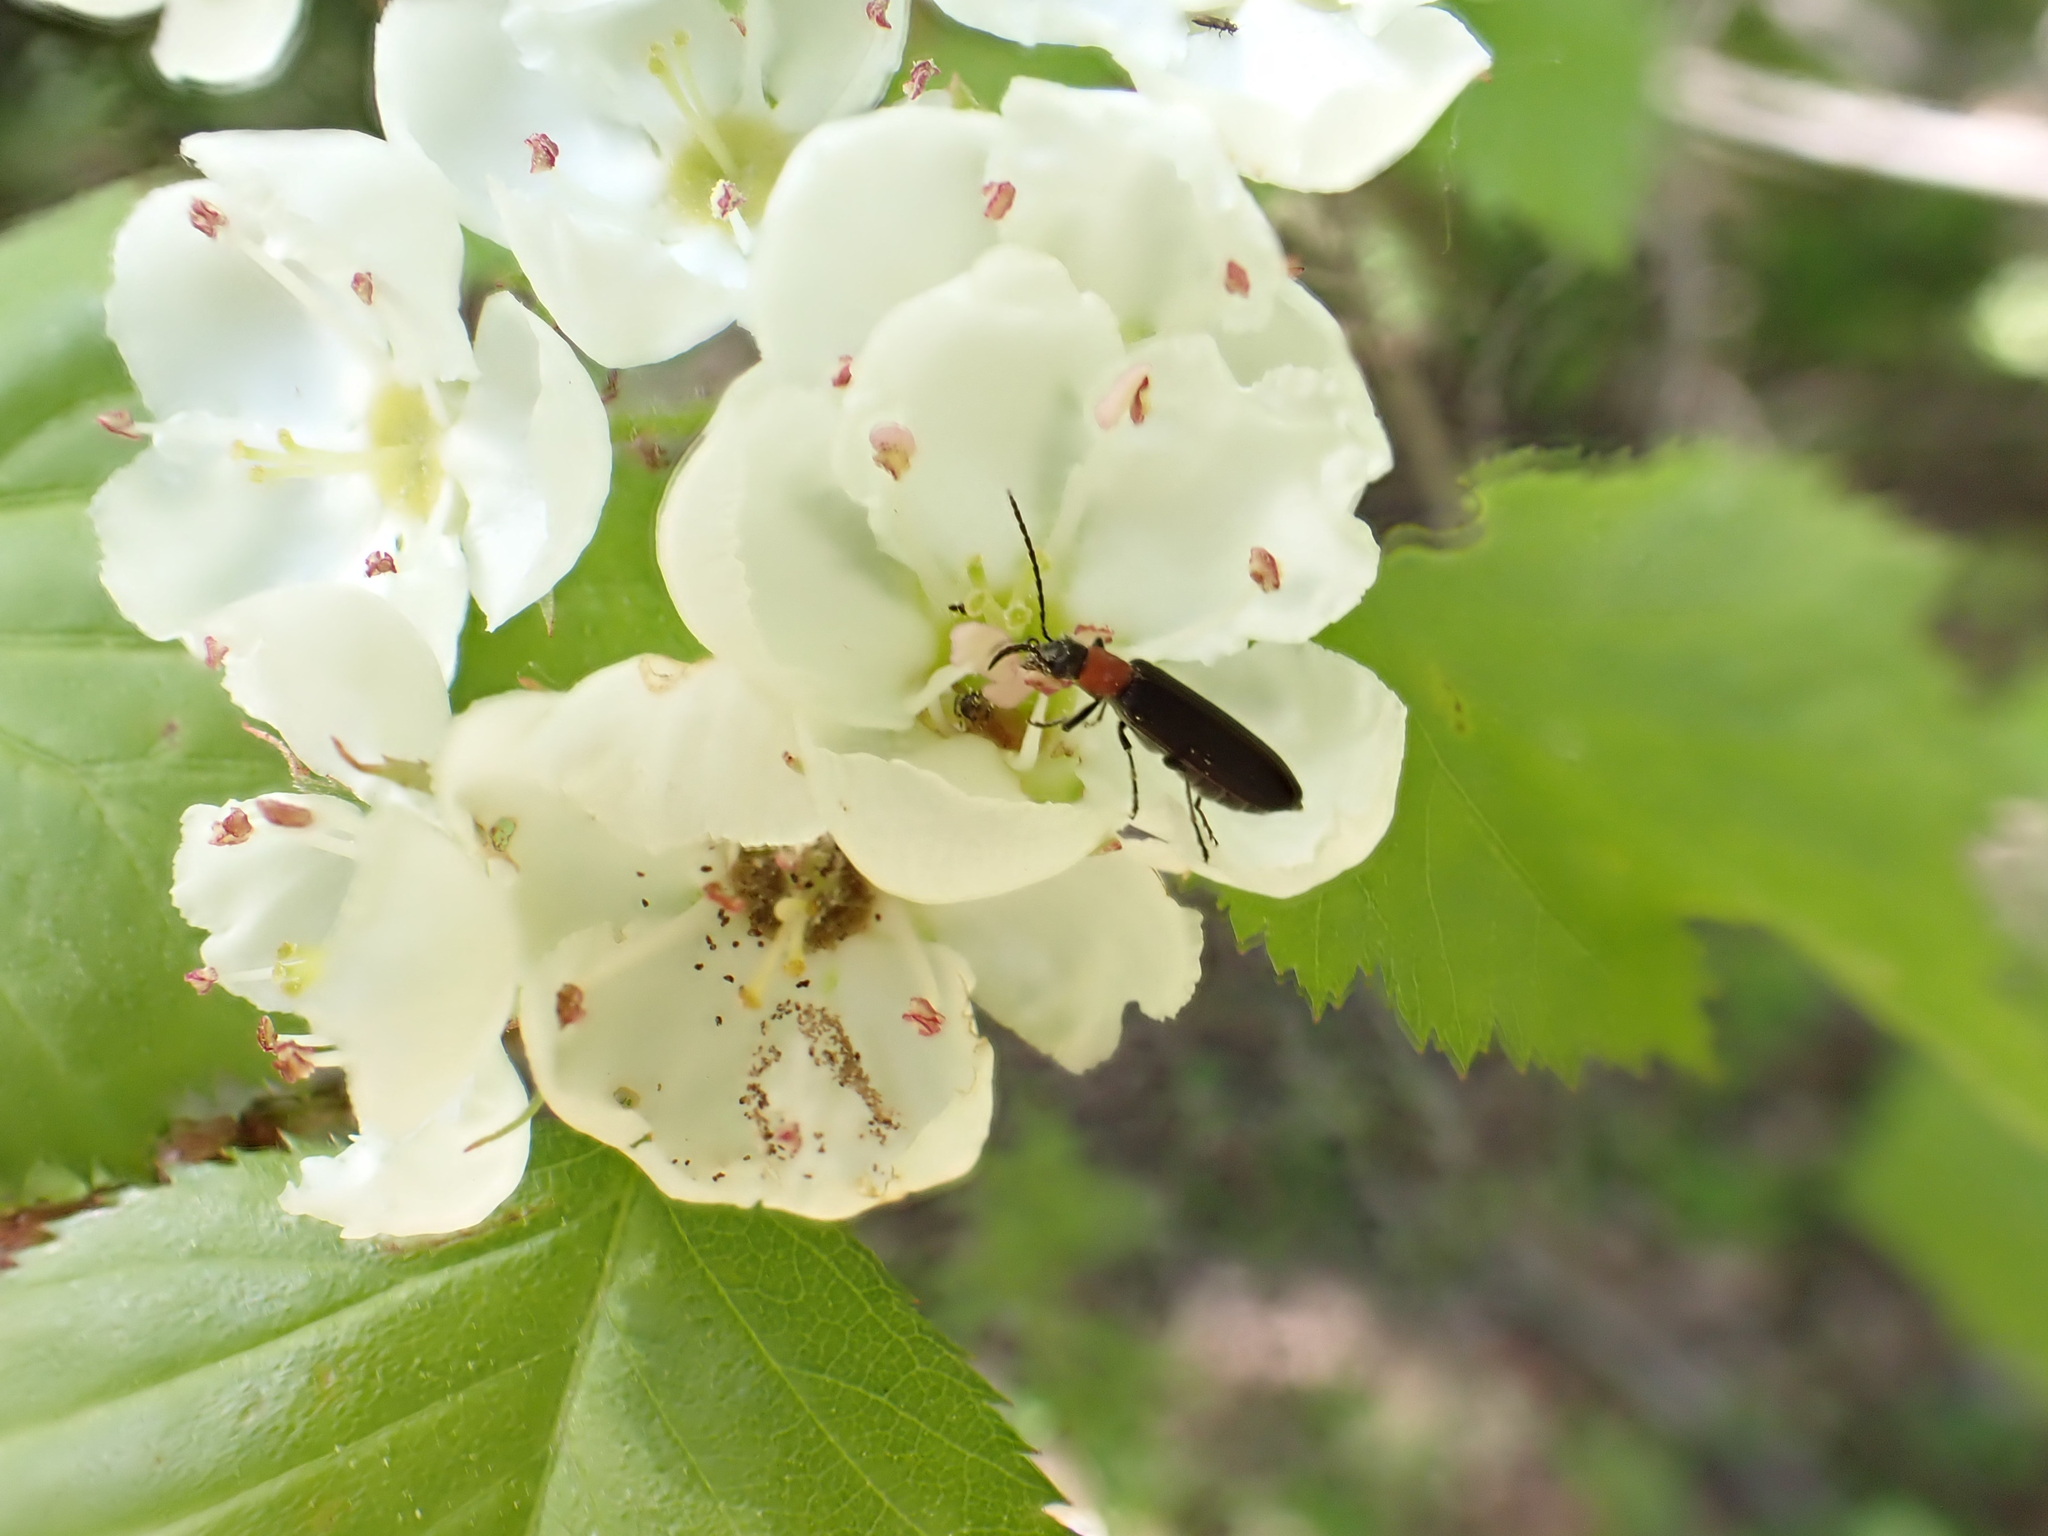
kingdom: Animalia
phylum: Arthropoda
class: Insecta
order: Coleoptera
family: Oedemeridae
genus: Ischnomera
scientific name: Ischnomera
